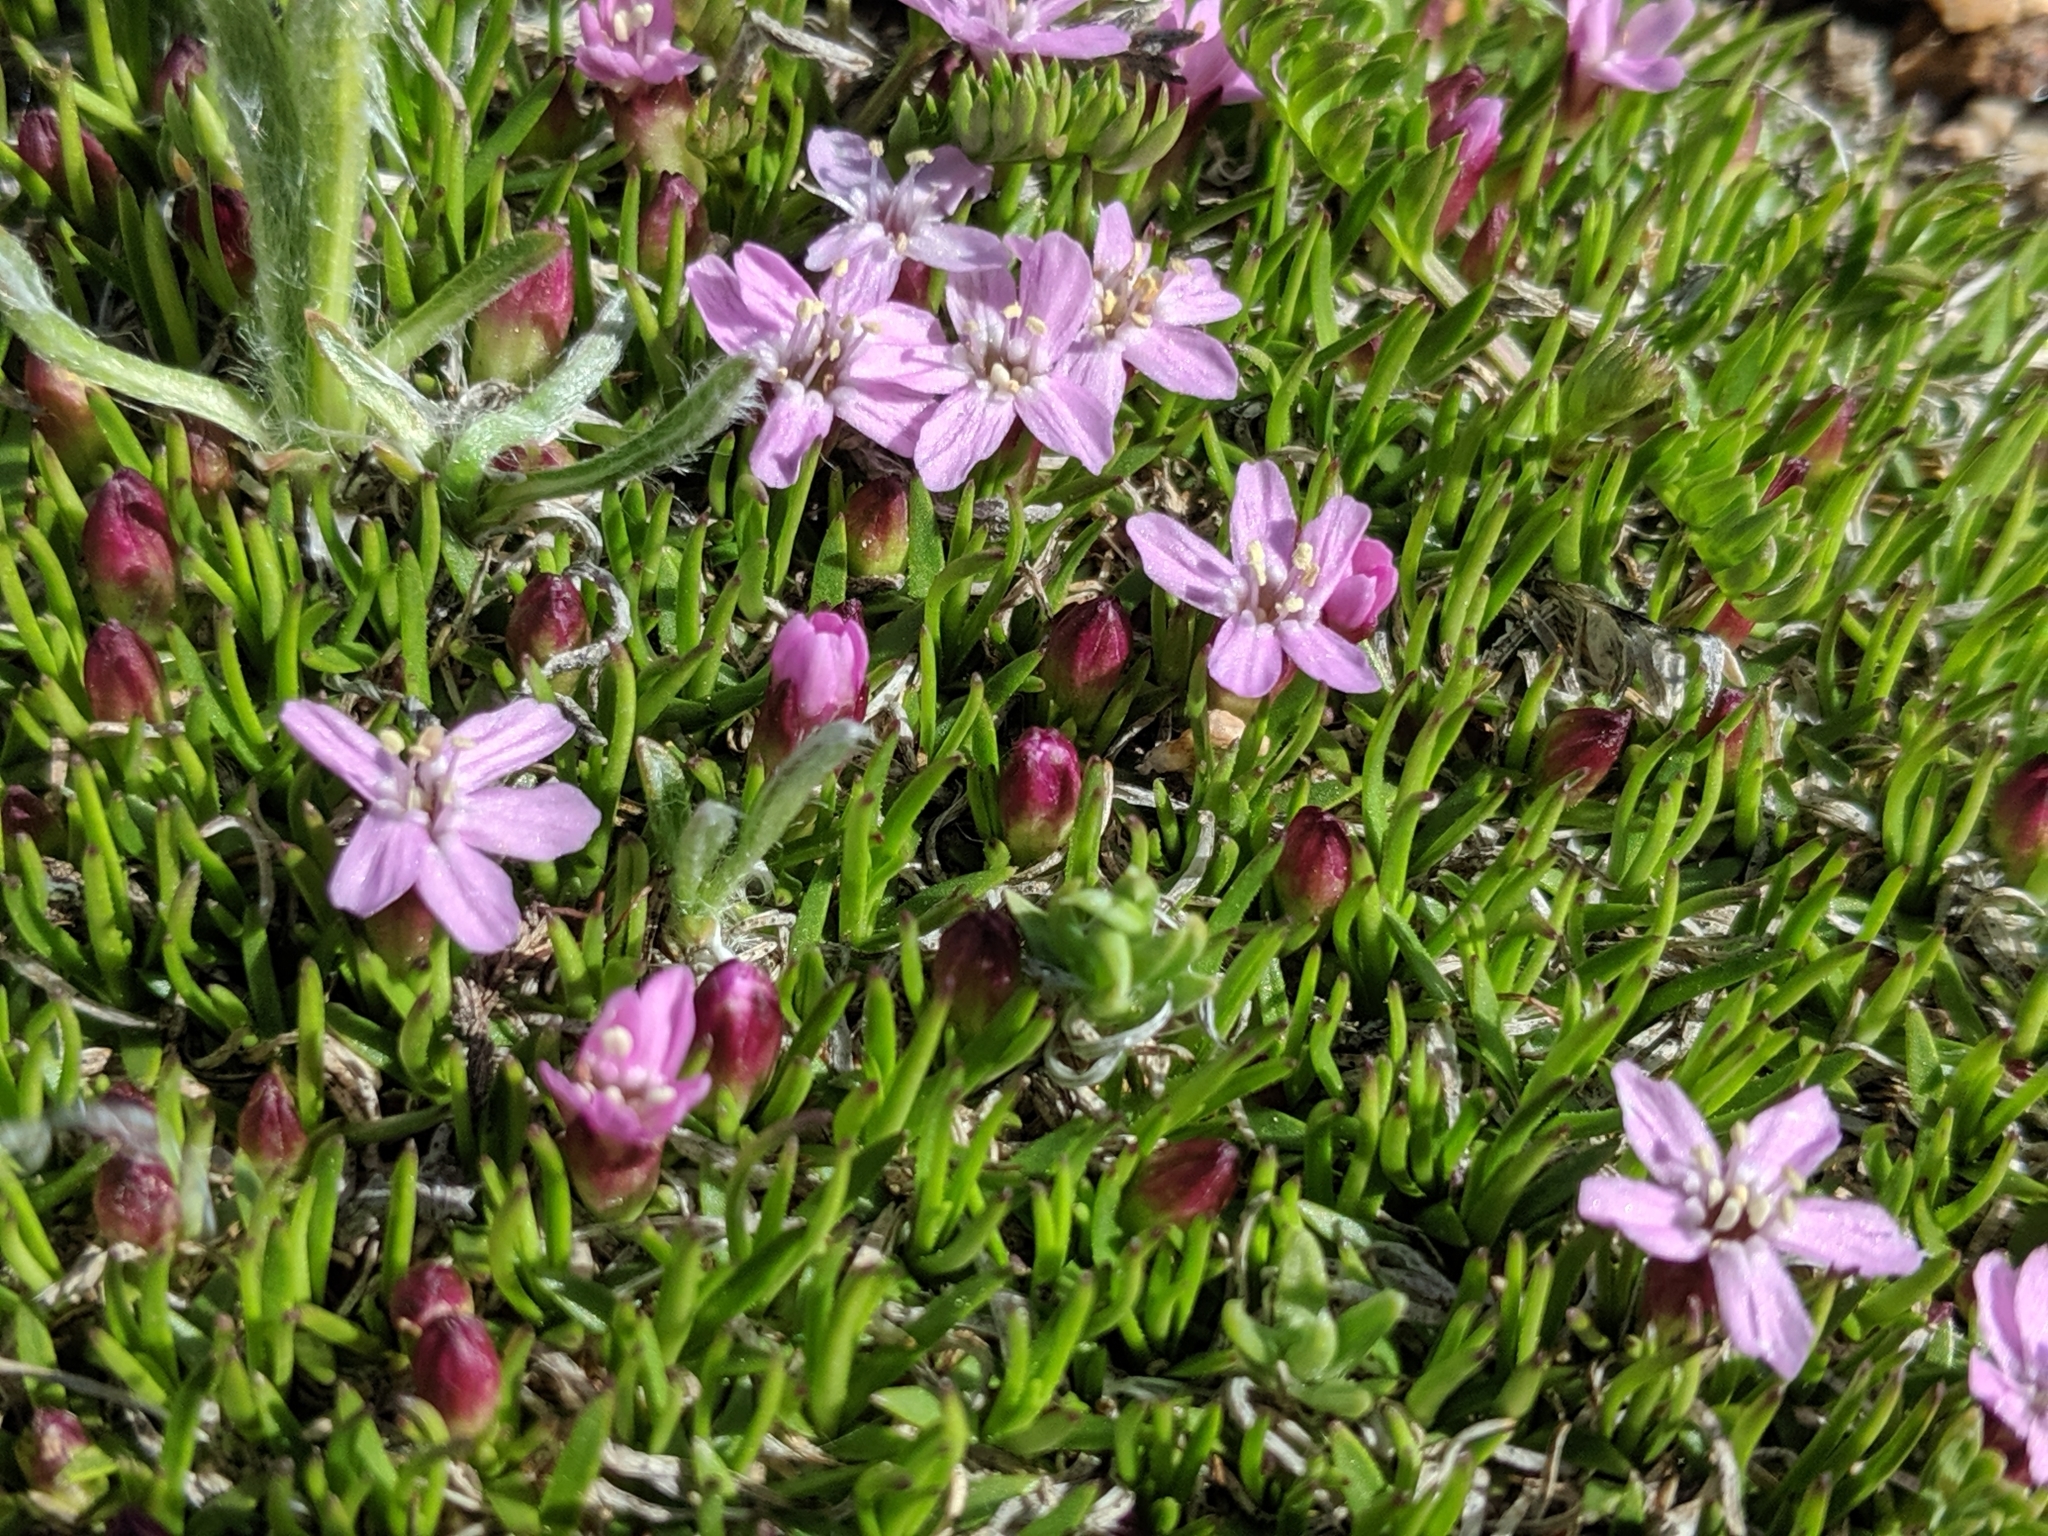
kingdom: Plantae
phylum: Tracheophyta
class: Magnoliopsida
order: Caryophyllales
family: Caryophyllaceae
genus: Silene
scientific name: Silene acaulis
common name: Moss campion
